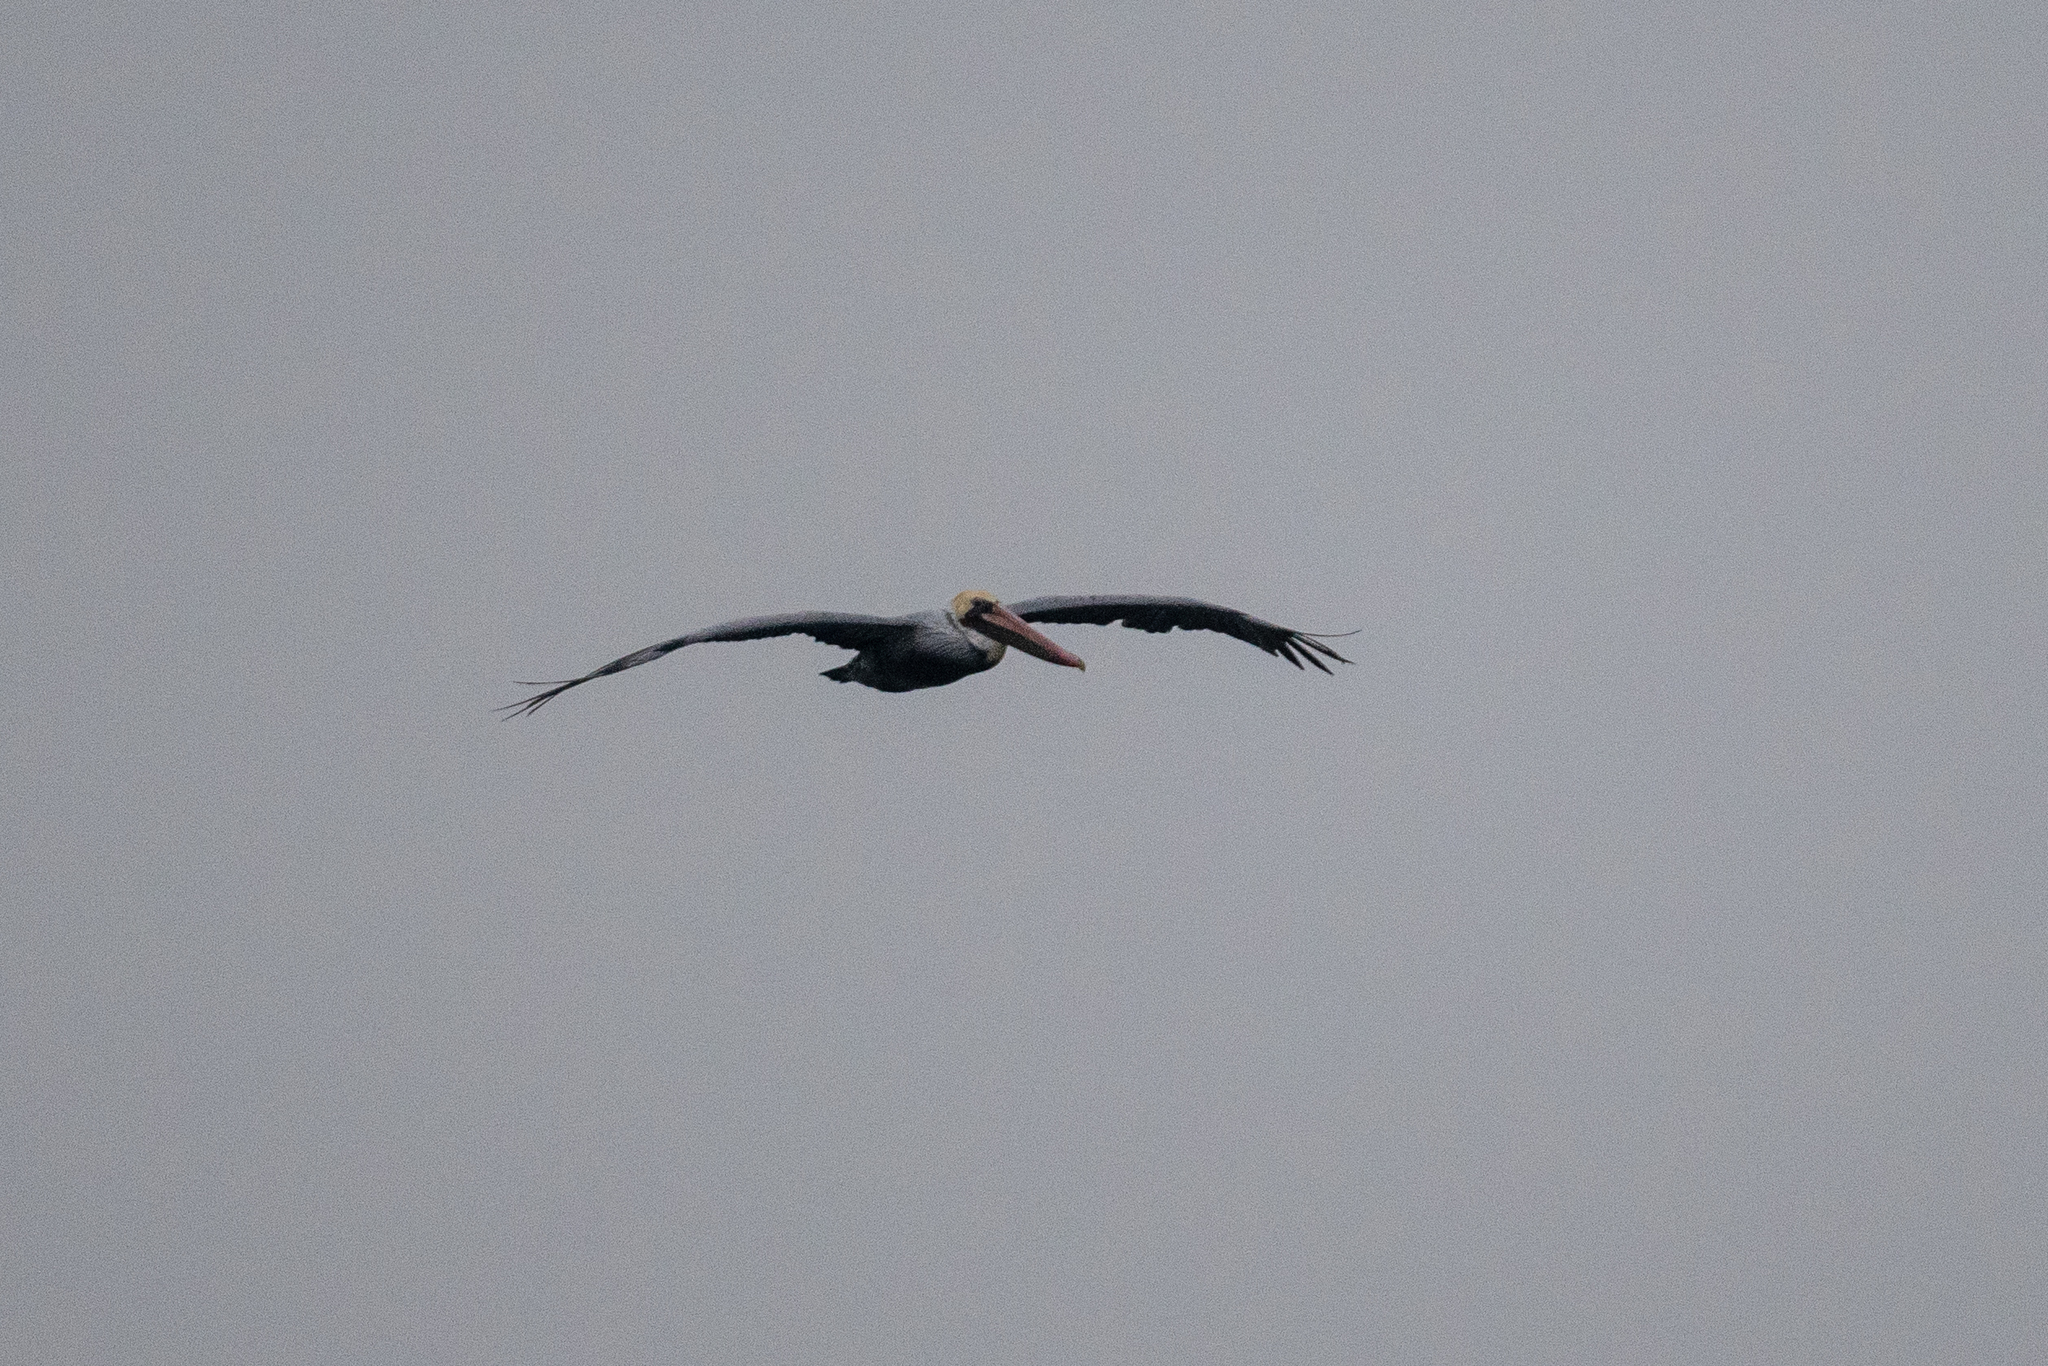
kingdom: Animalia
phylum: Chordata
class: Aves
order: Pelecaniformes
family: Pelecanidae
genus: Pelecanus
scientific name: Pelecanus occidentalis
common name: Brown pelican
